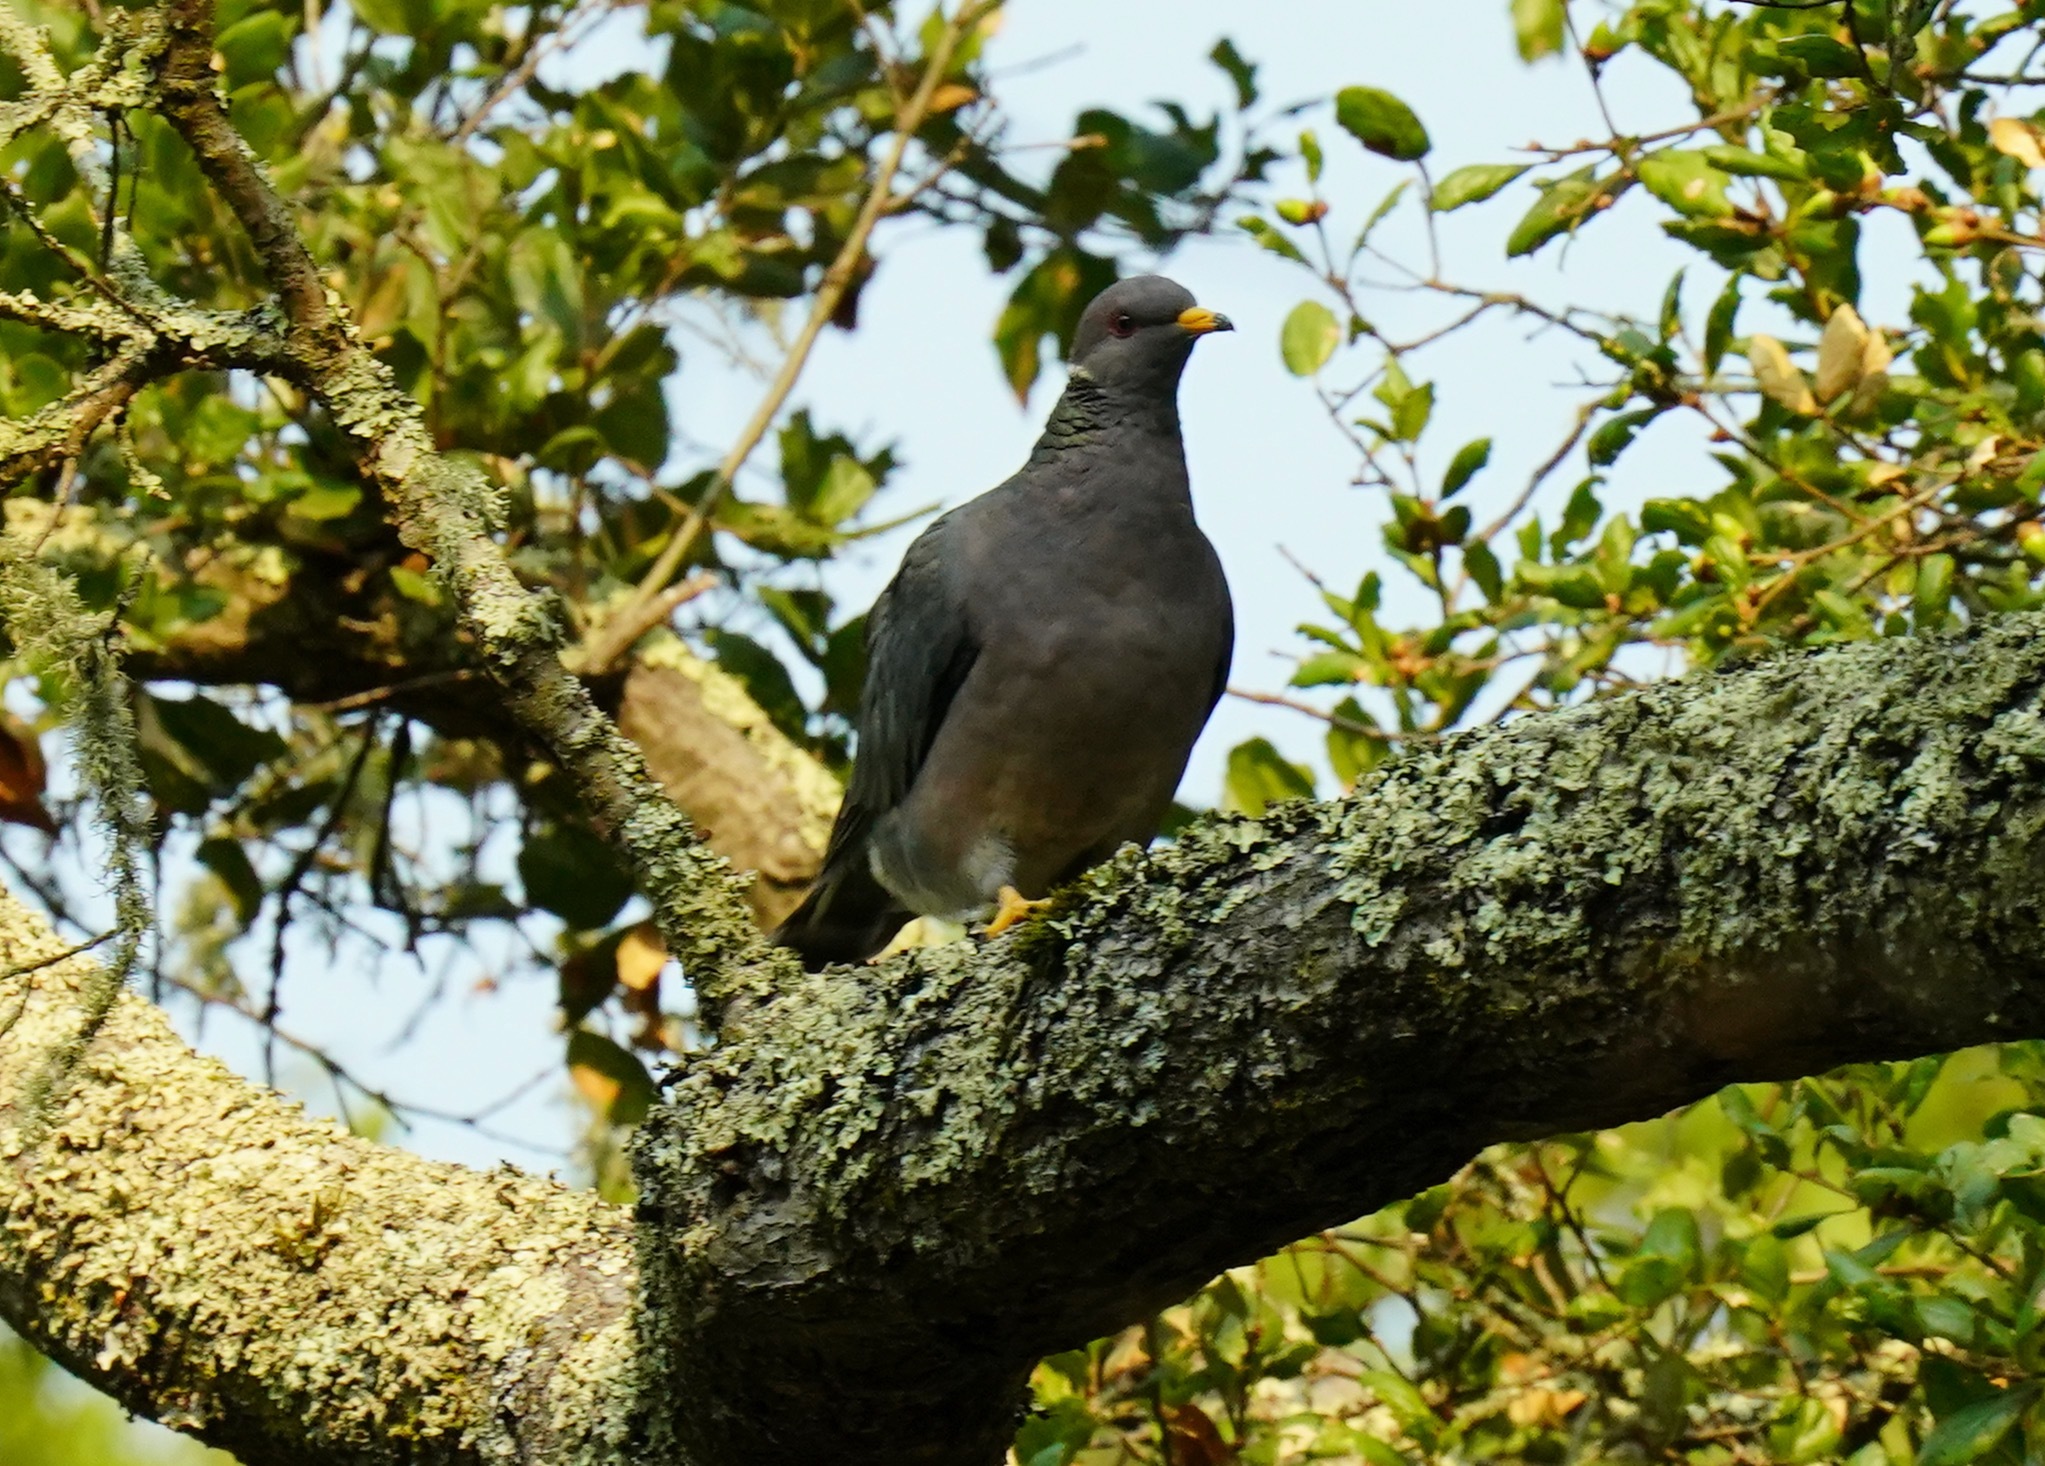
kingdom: Animalia
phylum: Chordata
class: Aves
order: Columbiformes
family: Columbidae
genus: Patagioenas
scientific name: Patagioenas fasciata
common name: Band-tailed pigeon
